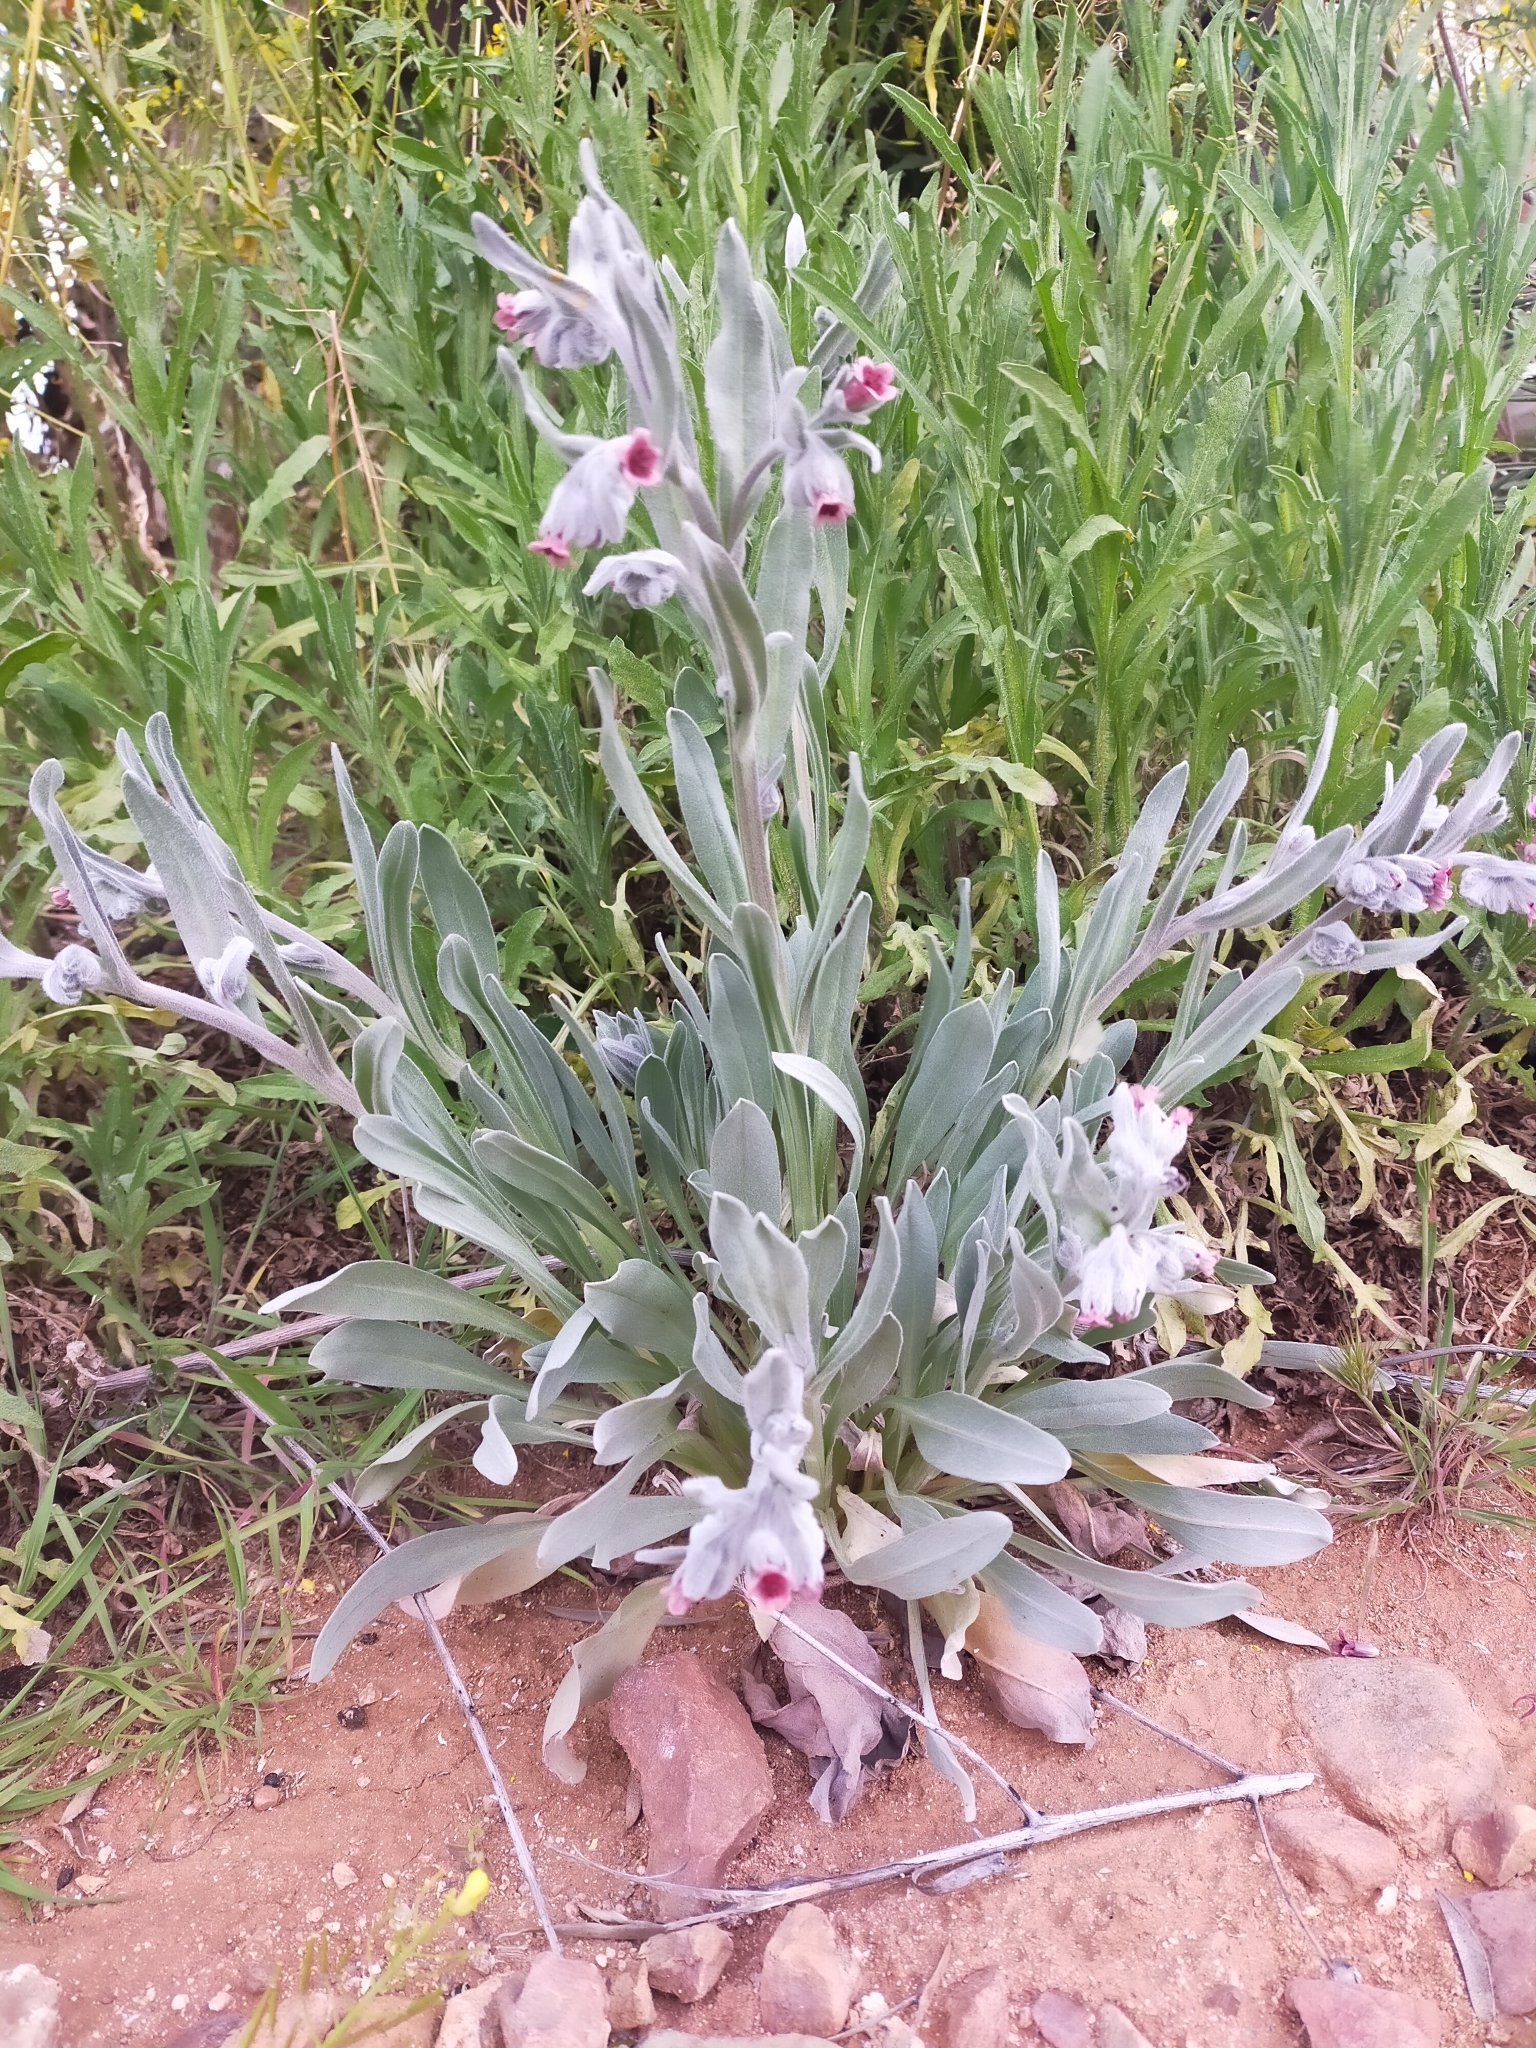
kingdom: Plantae
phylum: Tracheophyta
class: Magnoliopsida
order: Boraginales
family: Boraginaceae
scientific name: Boraginaceae
